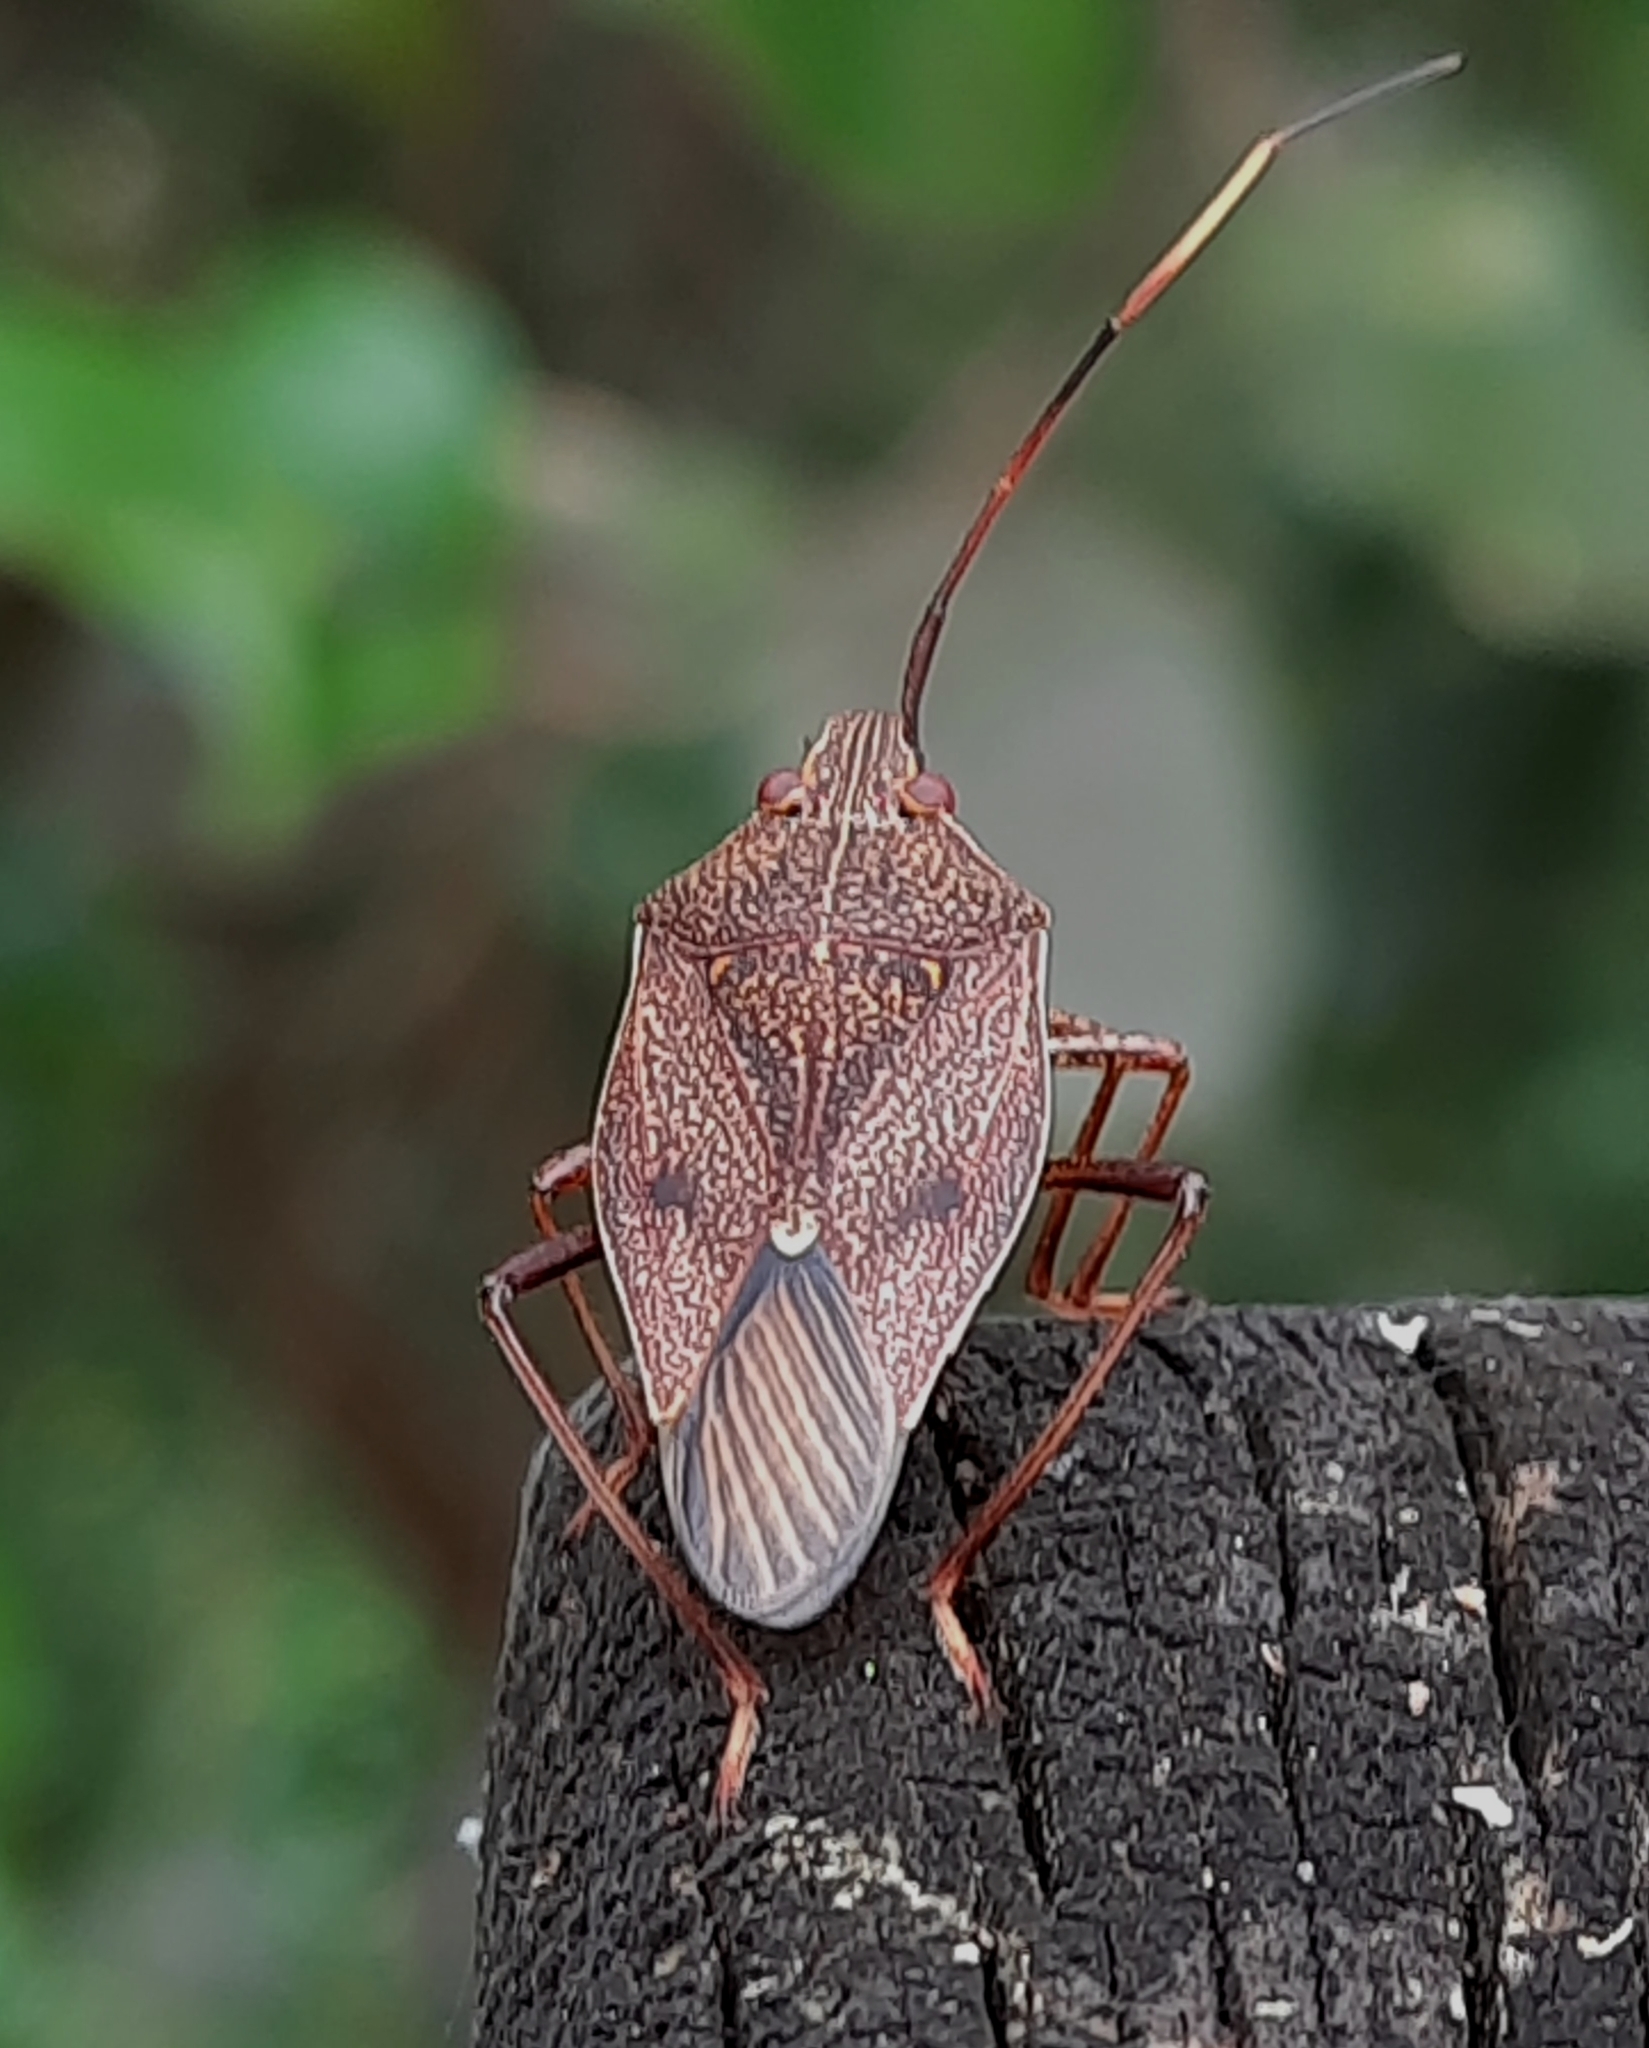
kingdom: Animalia
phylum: Arthropoda
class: Insecta
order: Hemiptera
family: Pentatomidae
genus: Poecilometis
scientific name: Poecilometis
